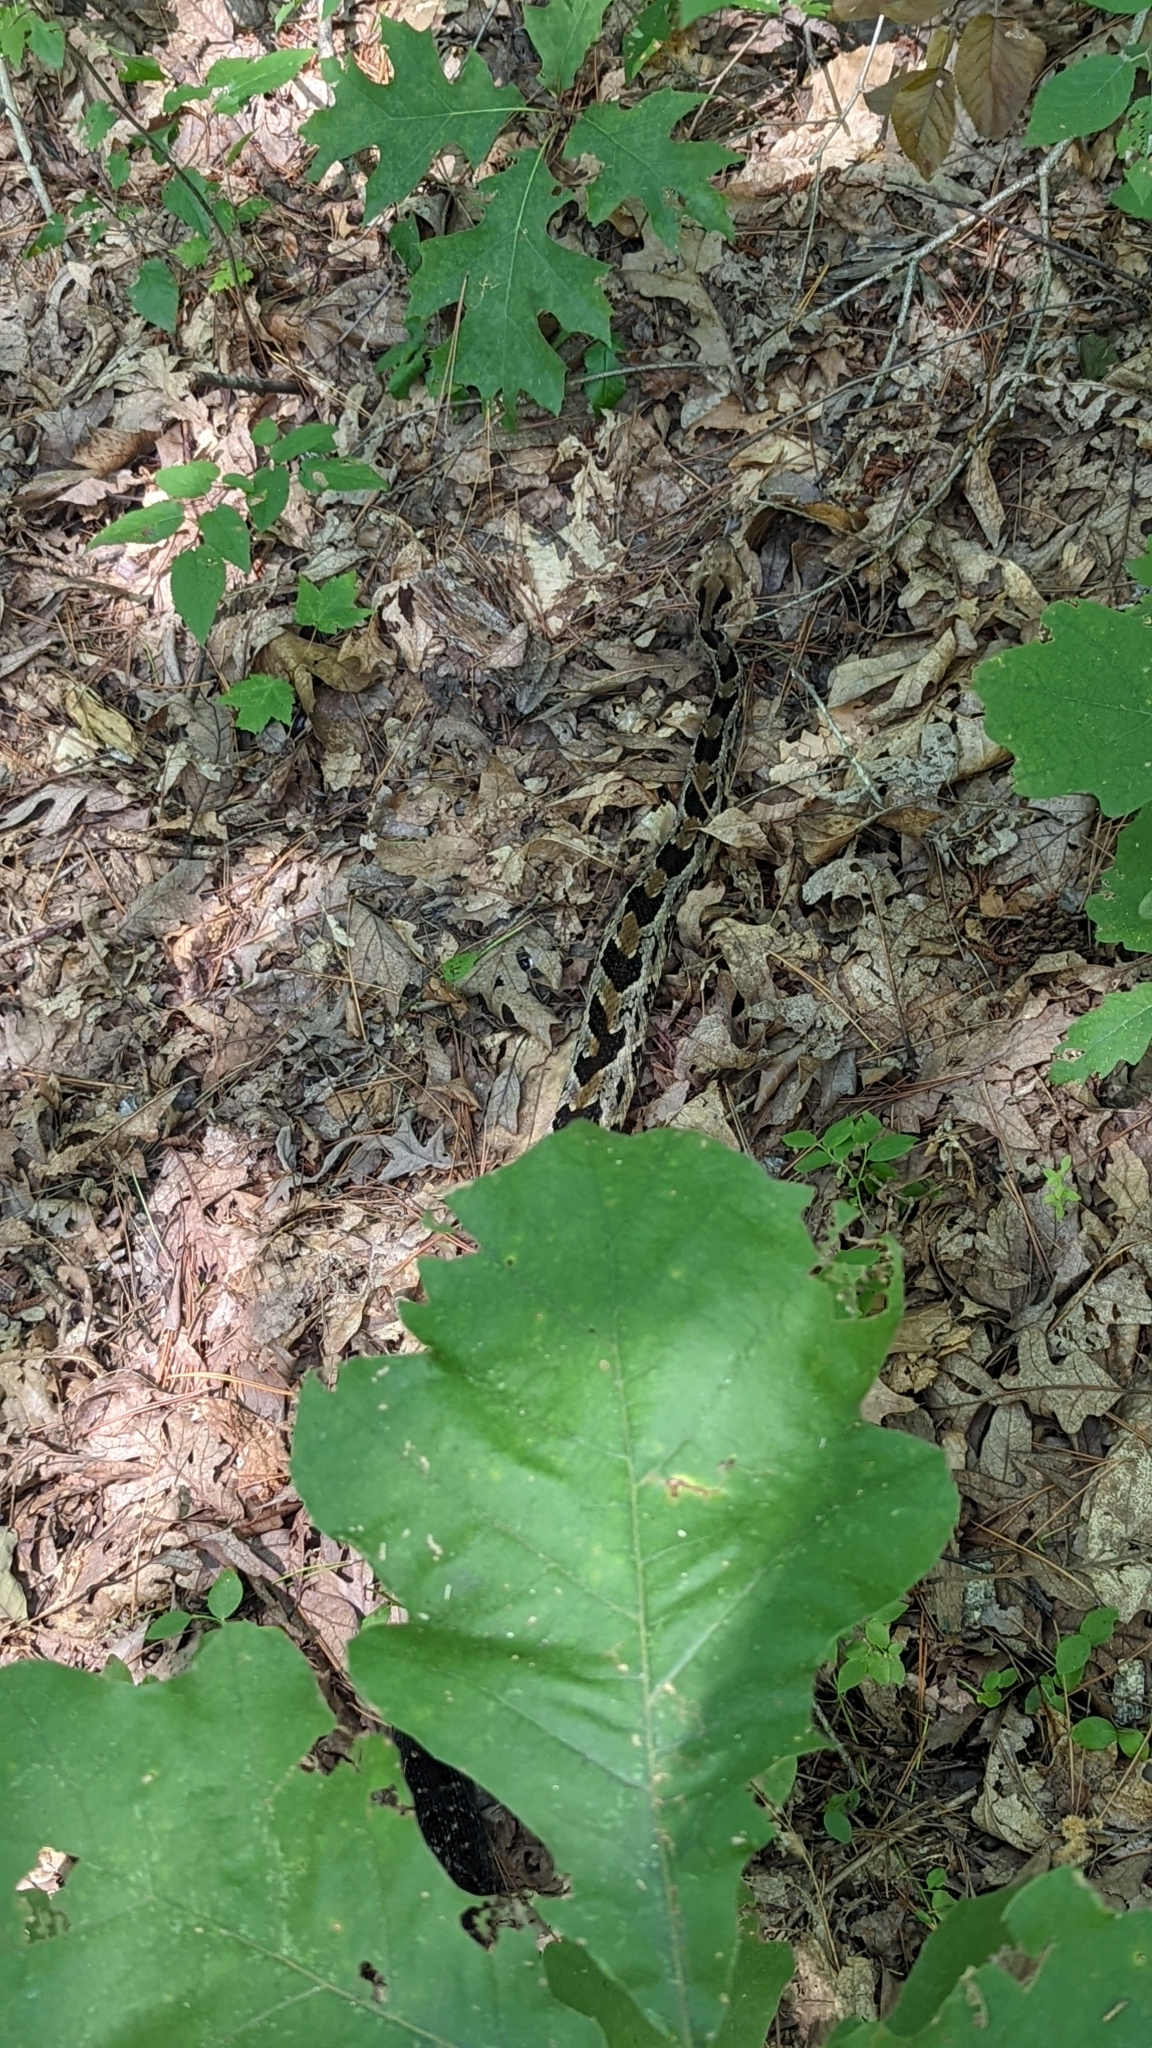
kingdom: Animalia
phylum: Chordata
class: Squamata
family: Viperidae
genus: Crotalus
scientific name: Crotalus horridus
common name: Timber rattlesnake
